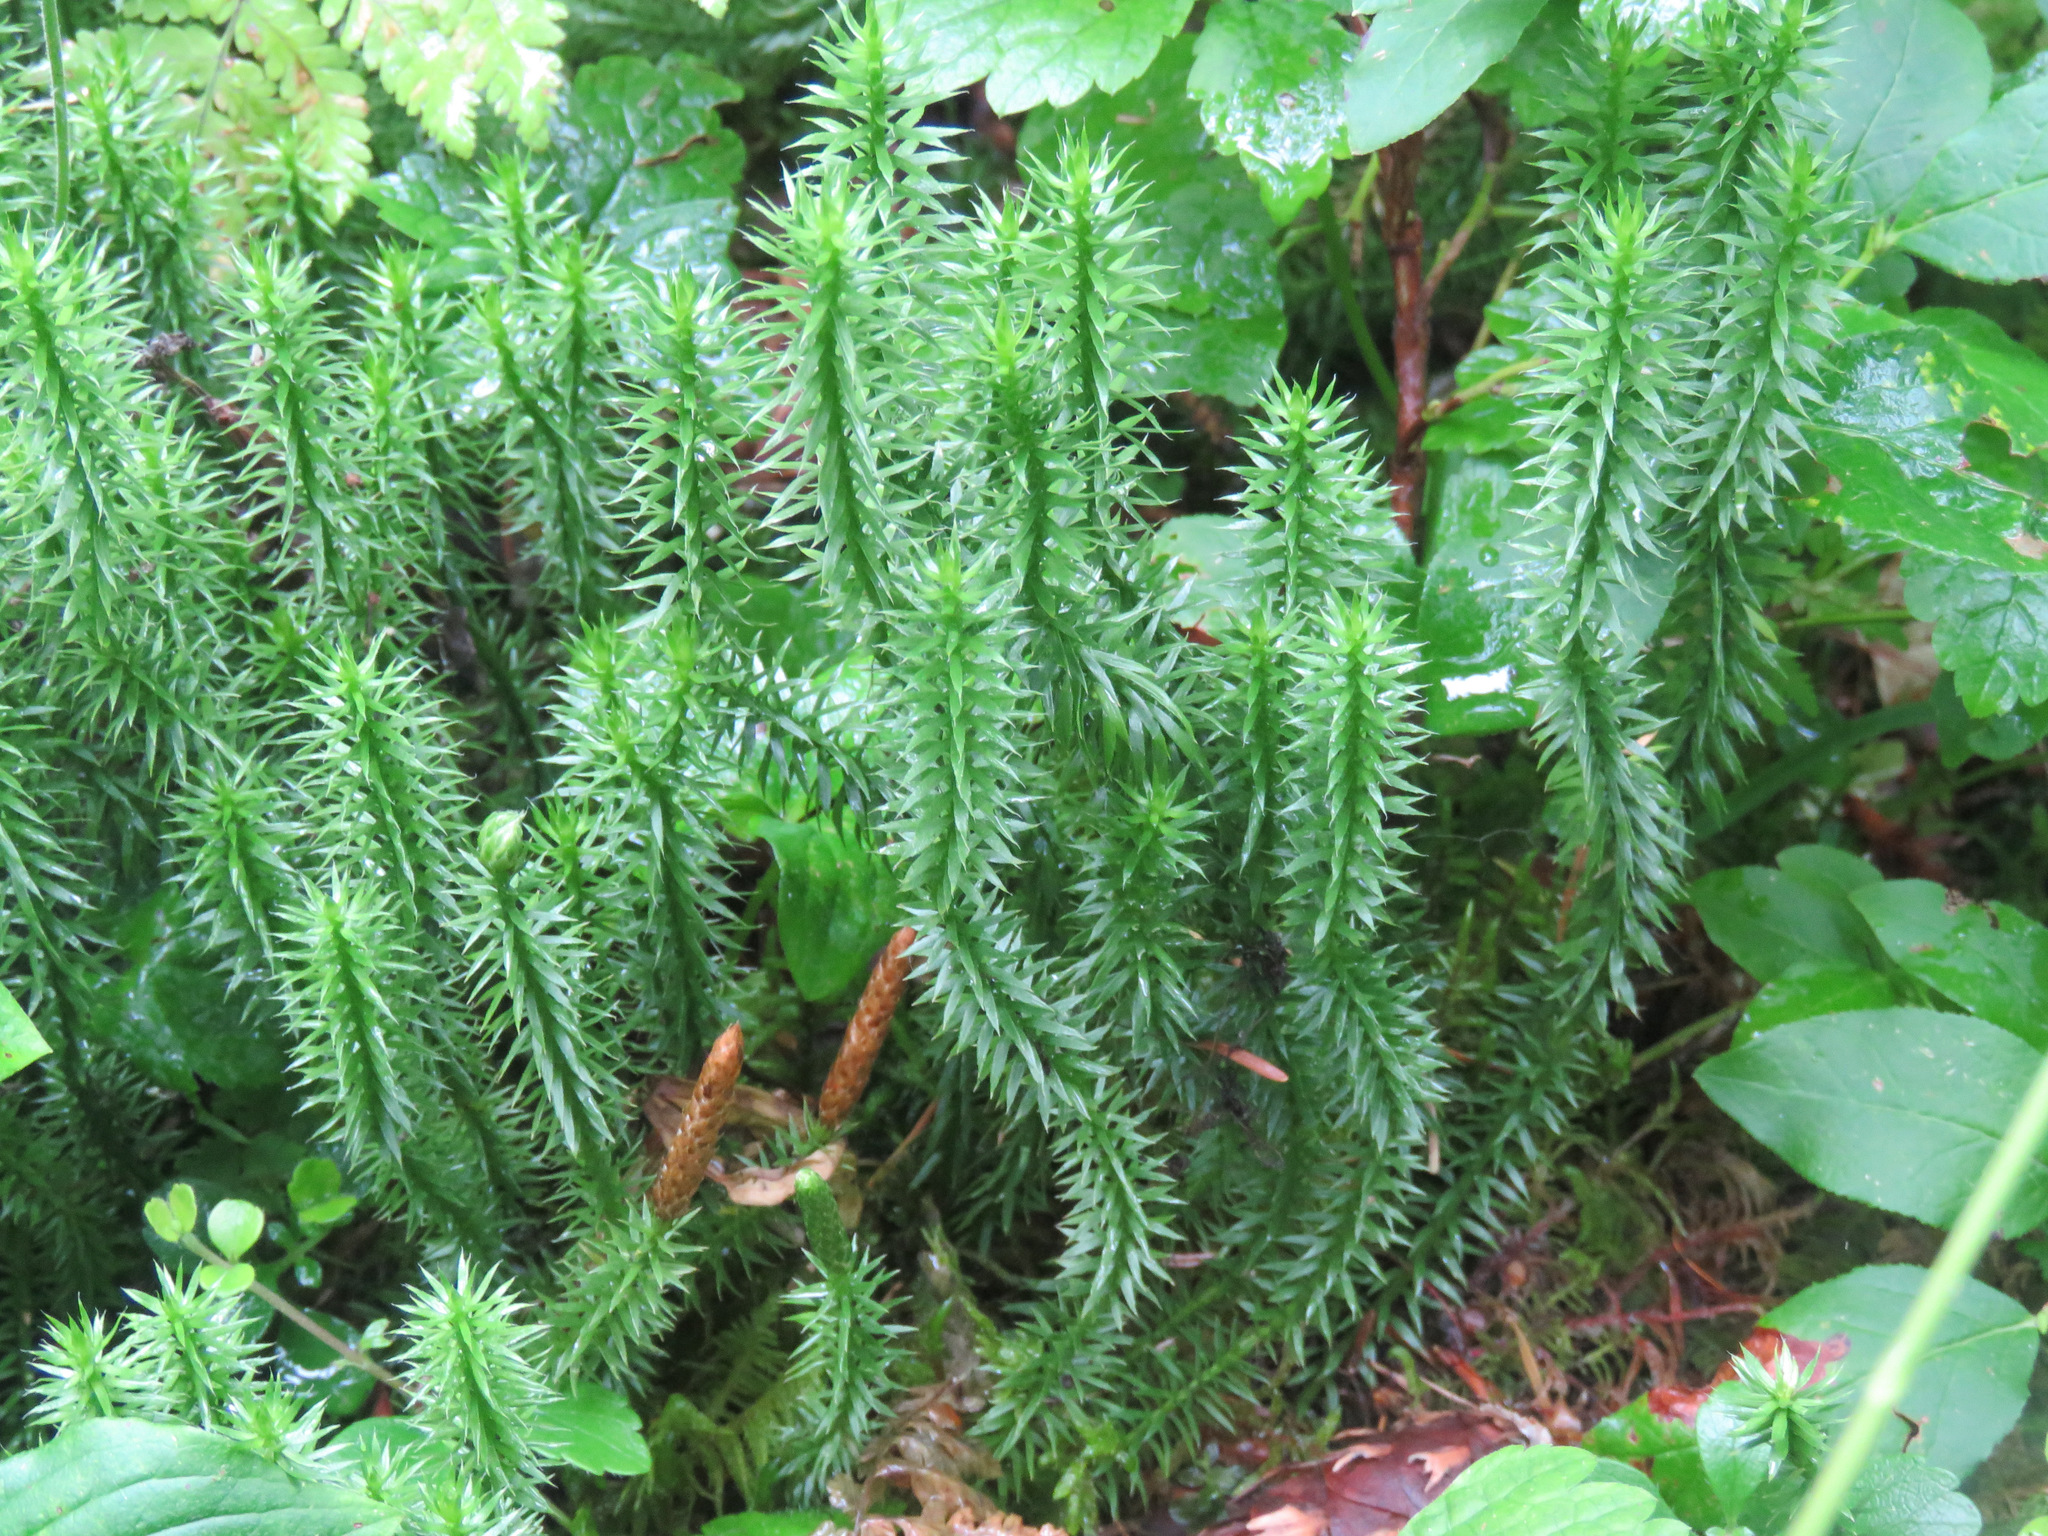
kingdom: Plantae
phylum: Tracheophyta
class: Lycopodiopsida
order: Lycopodiales
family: Lycopodiaceae
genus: Spinulum
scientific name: Spinulum annotinum
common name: Interrupted club-moss
